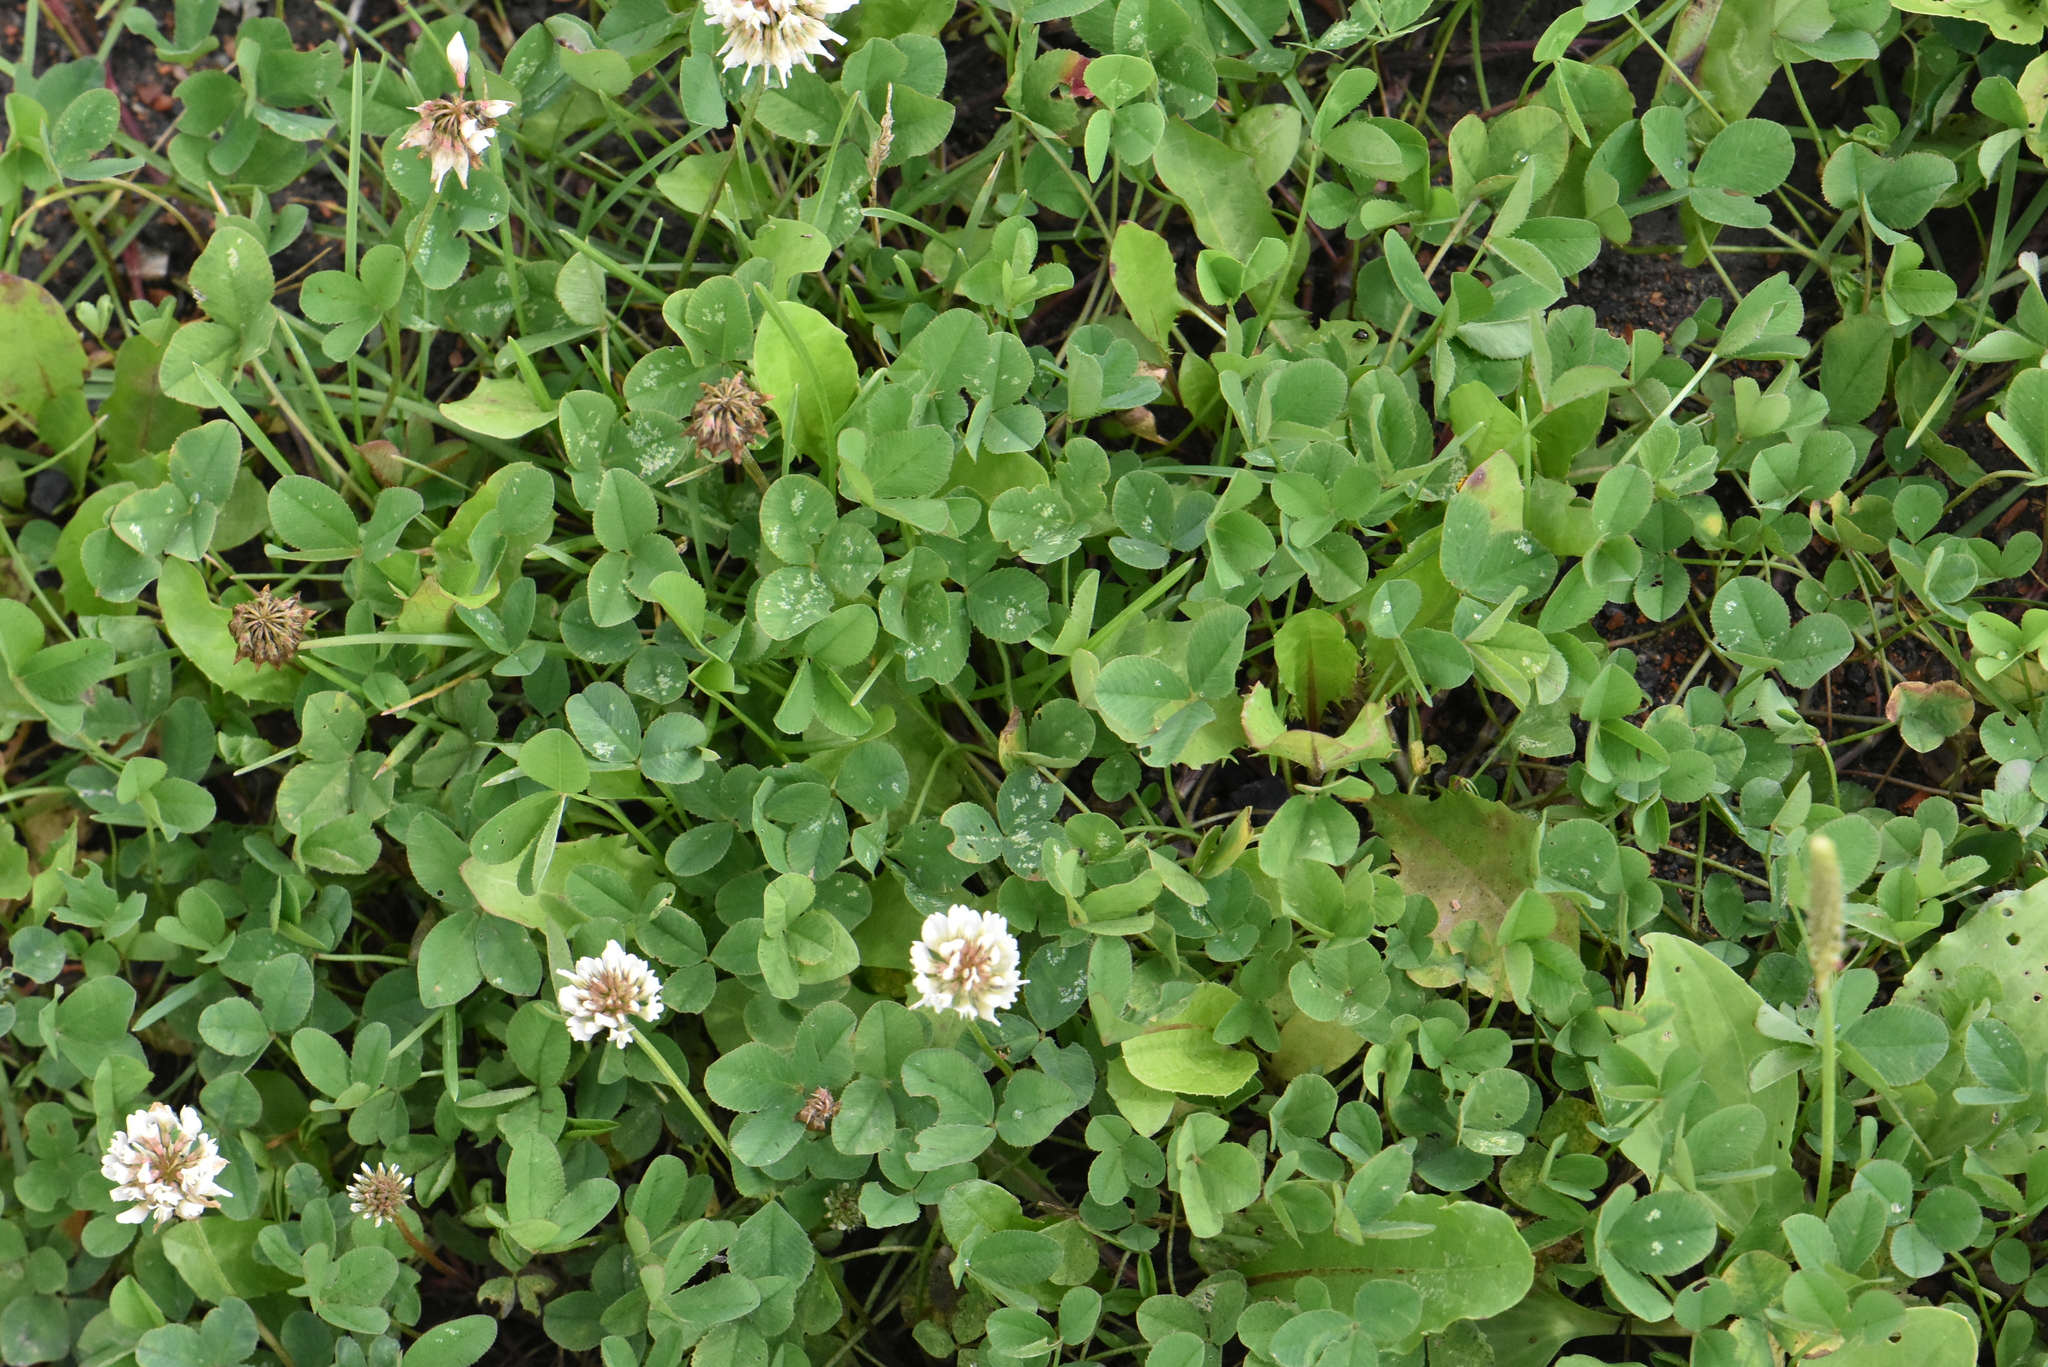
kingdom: Plantae
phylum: Tracheophyta
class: Magnoliopsida
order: Fabales
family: Fabaceae
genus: Trifolium
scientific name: Trifolium repens
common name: White clover
